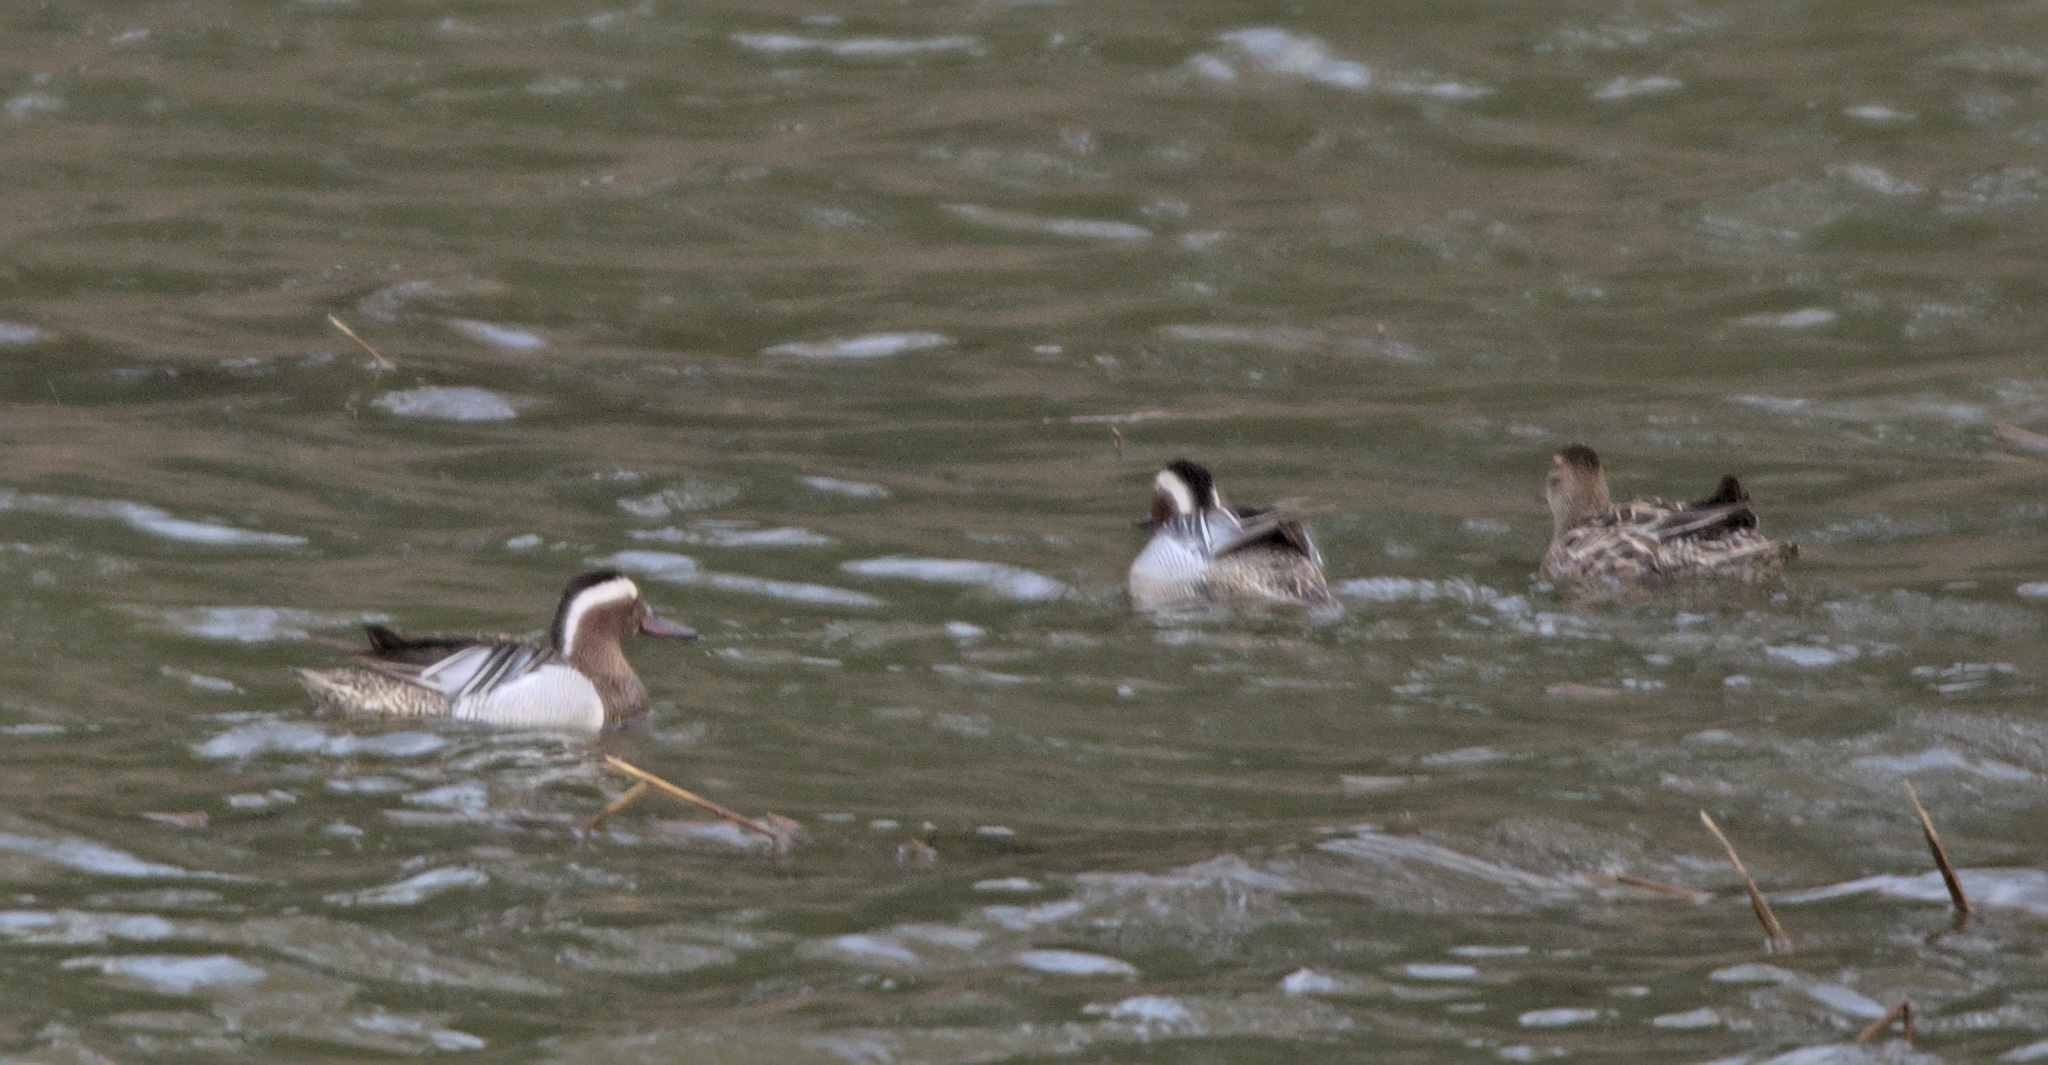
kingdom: Animalia
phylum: Chordata
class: Aves
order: Anseriformes
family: Anatidae
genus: Spatula
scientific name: Spatula querquedula
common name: Garganey
